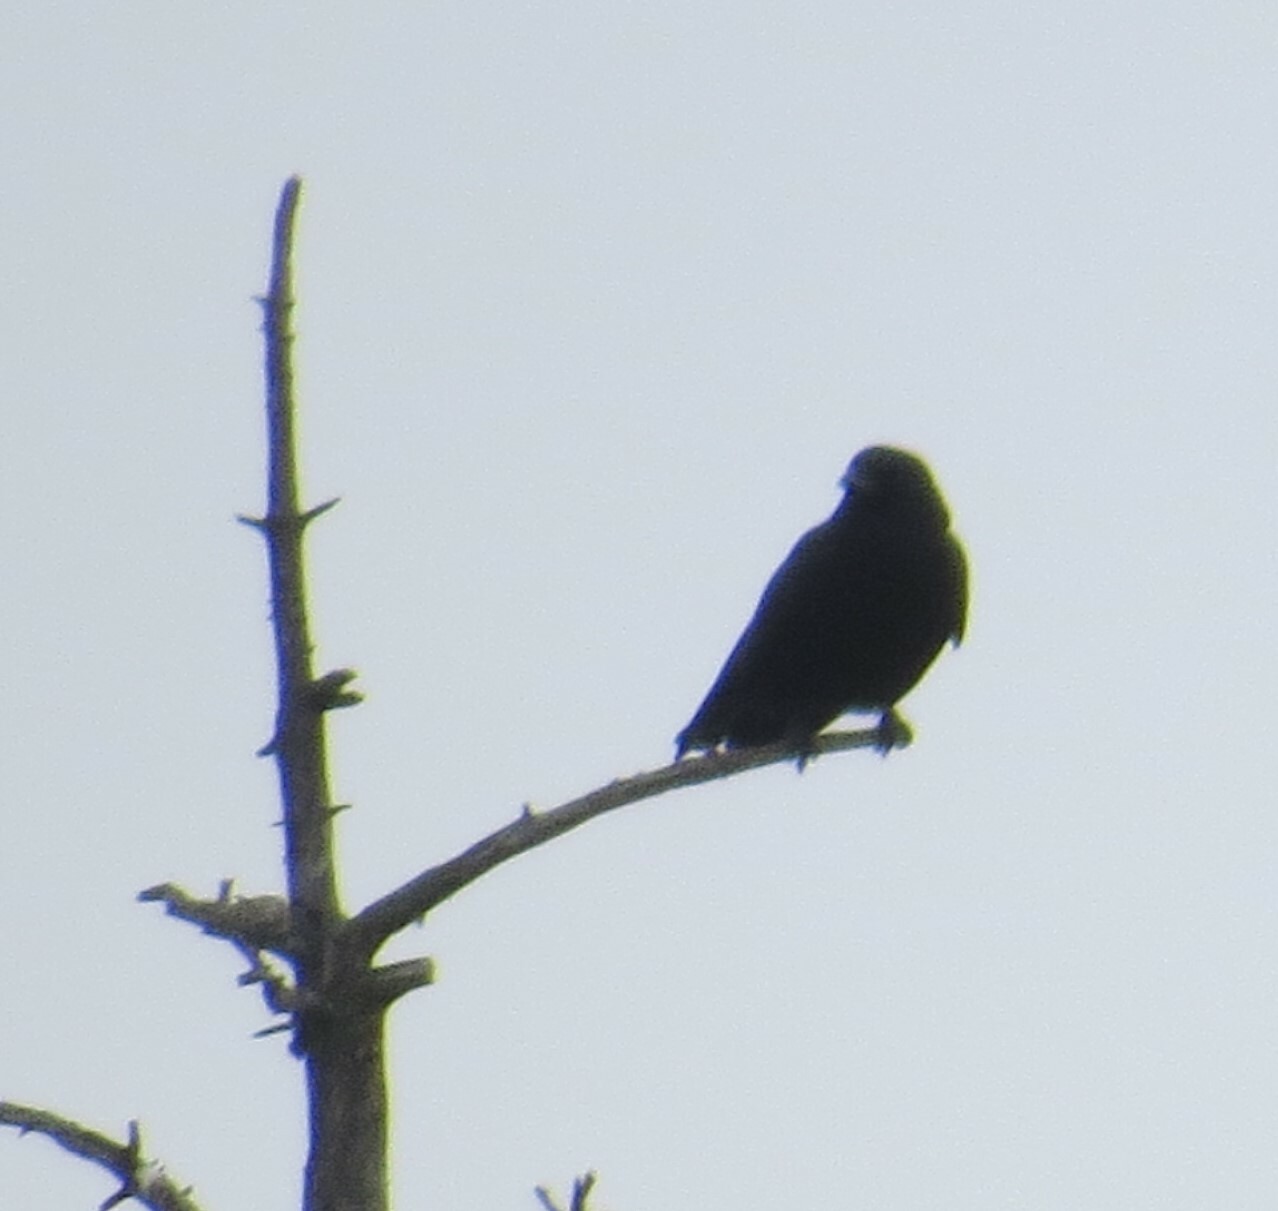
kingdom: Animalia
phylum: Chordata
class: Aves
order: Passeriformes
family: Corvidae
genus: Corvus
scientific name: Corvus brachyrhynchos
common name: American crow
